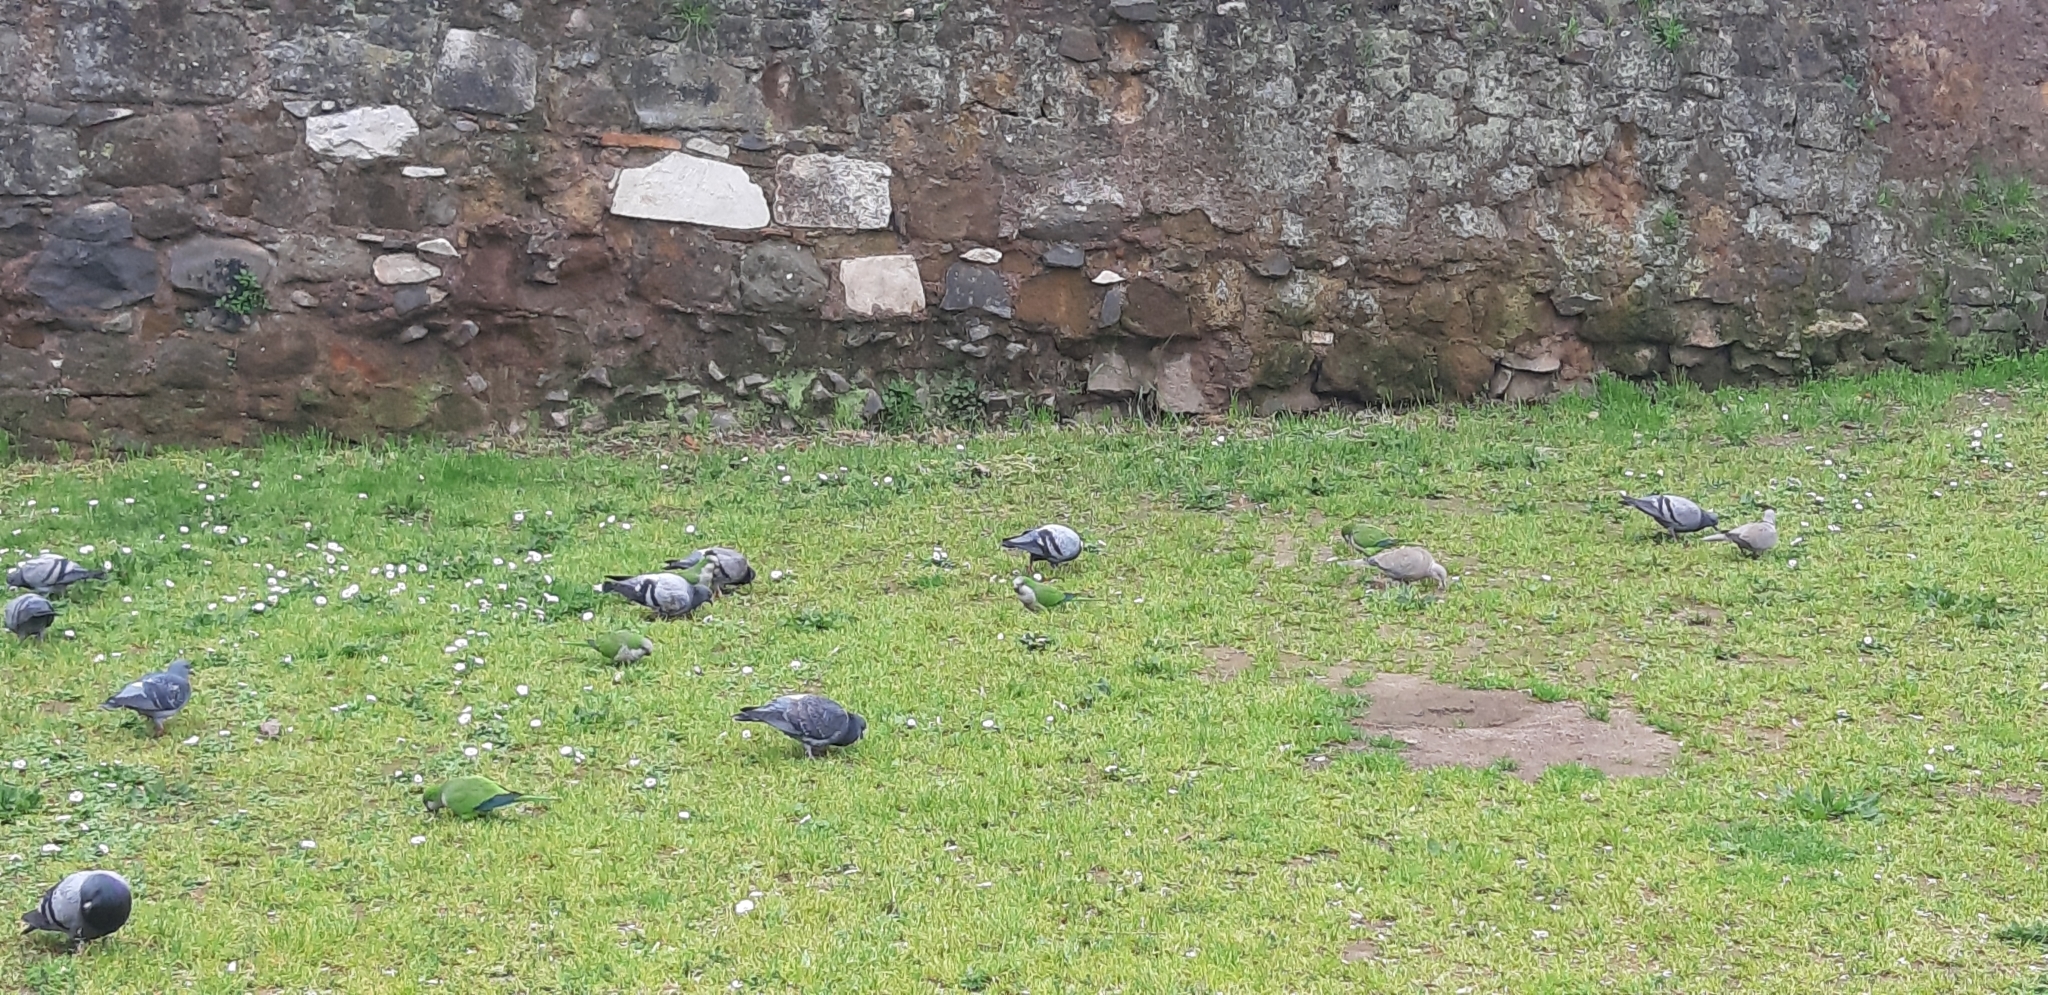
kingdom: Animalia
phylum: Chordata
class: Aves
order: Columbiformes
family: Columbidae
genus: Columba
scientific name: Columba livia
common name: Rock pigeon
